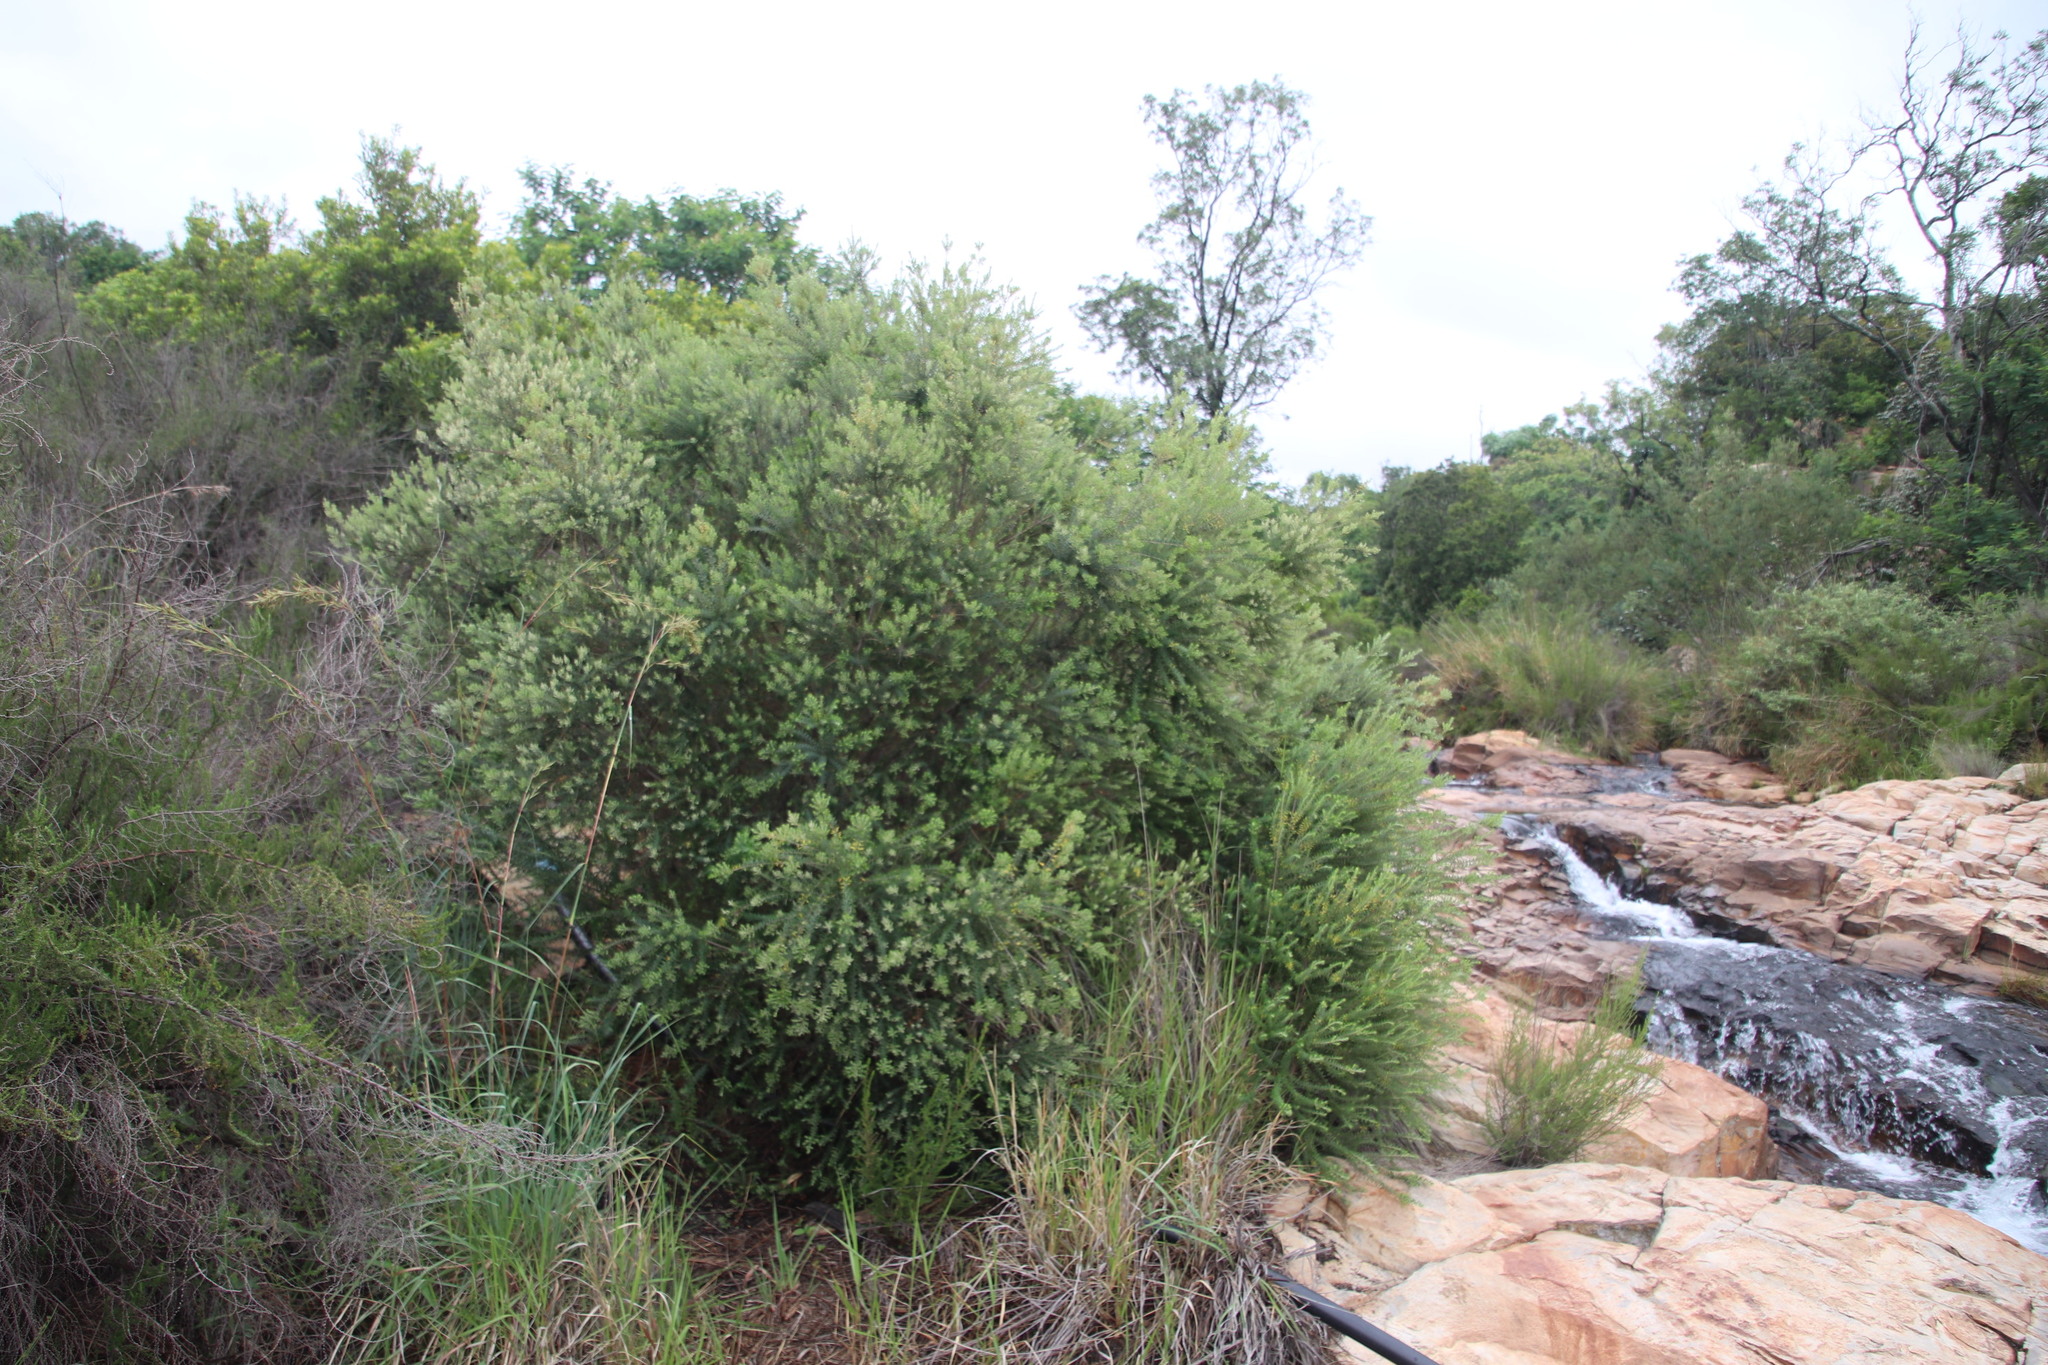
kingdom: Plantae
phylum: Tracheophyta
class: Magnoliopsida
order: Rosales
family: Rhamnaceae
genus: Phylica
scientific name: Phylica paniculata
